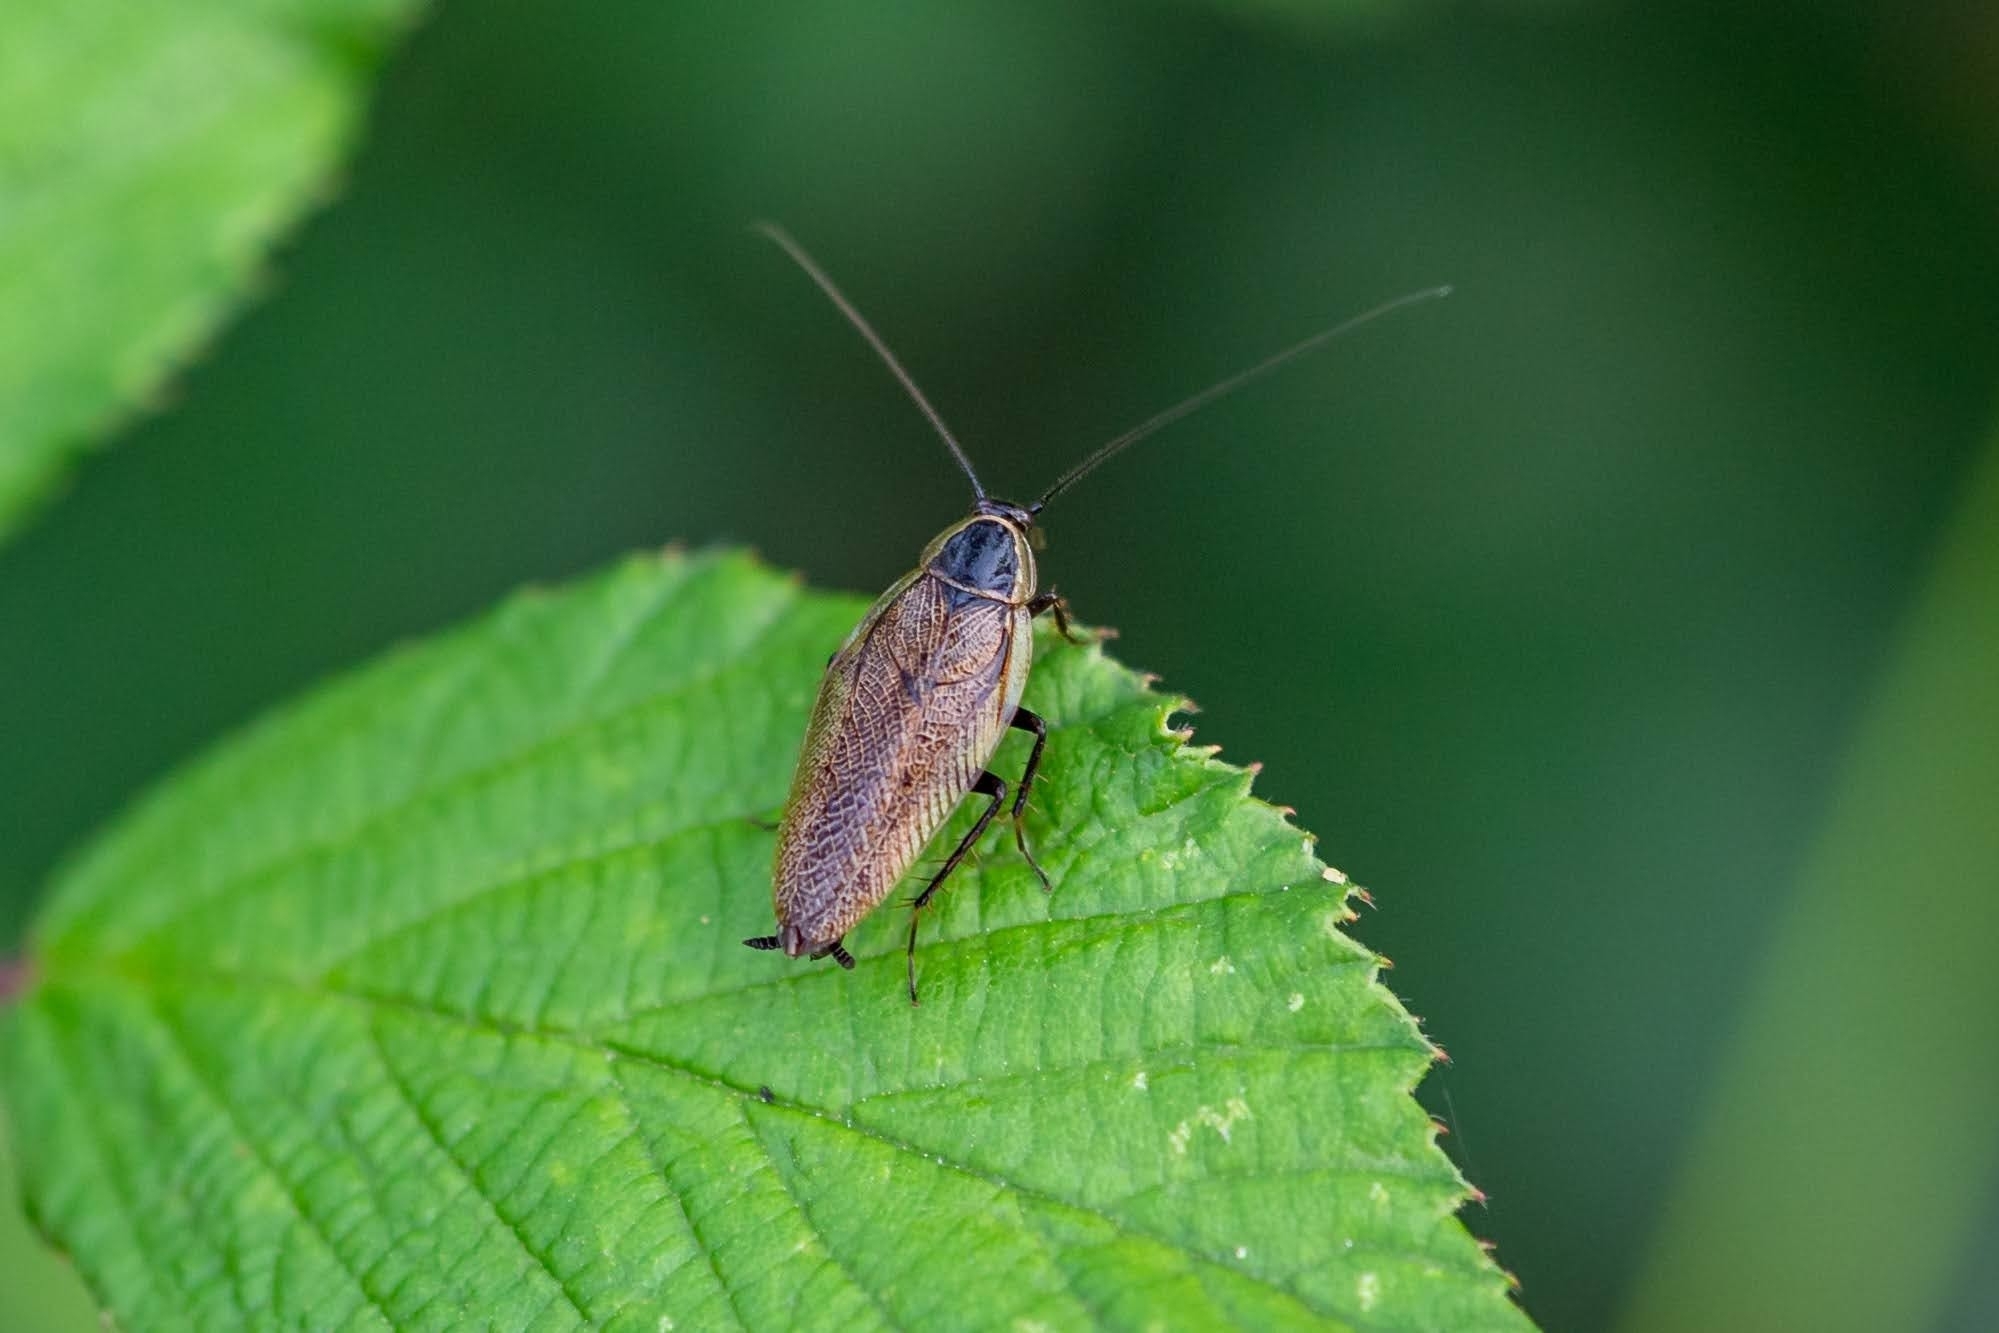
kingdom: Animalia
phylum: Arthropoda
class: Insecta
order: Blattodea
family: Ectobiidae
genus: Ectobius
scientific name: Ectobius sylvestris
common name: Forest cockroach
